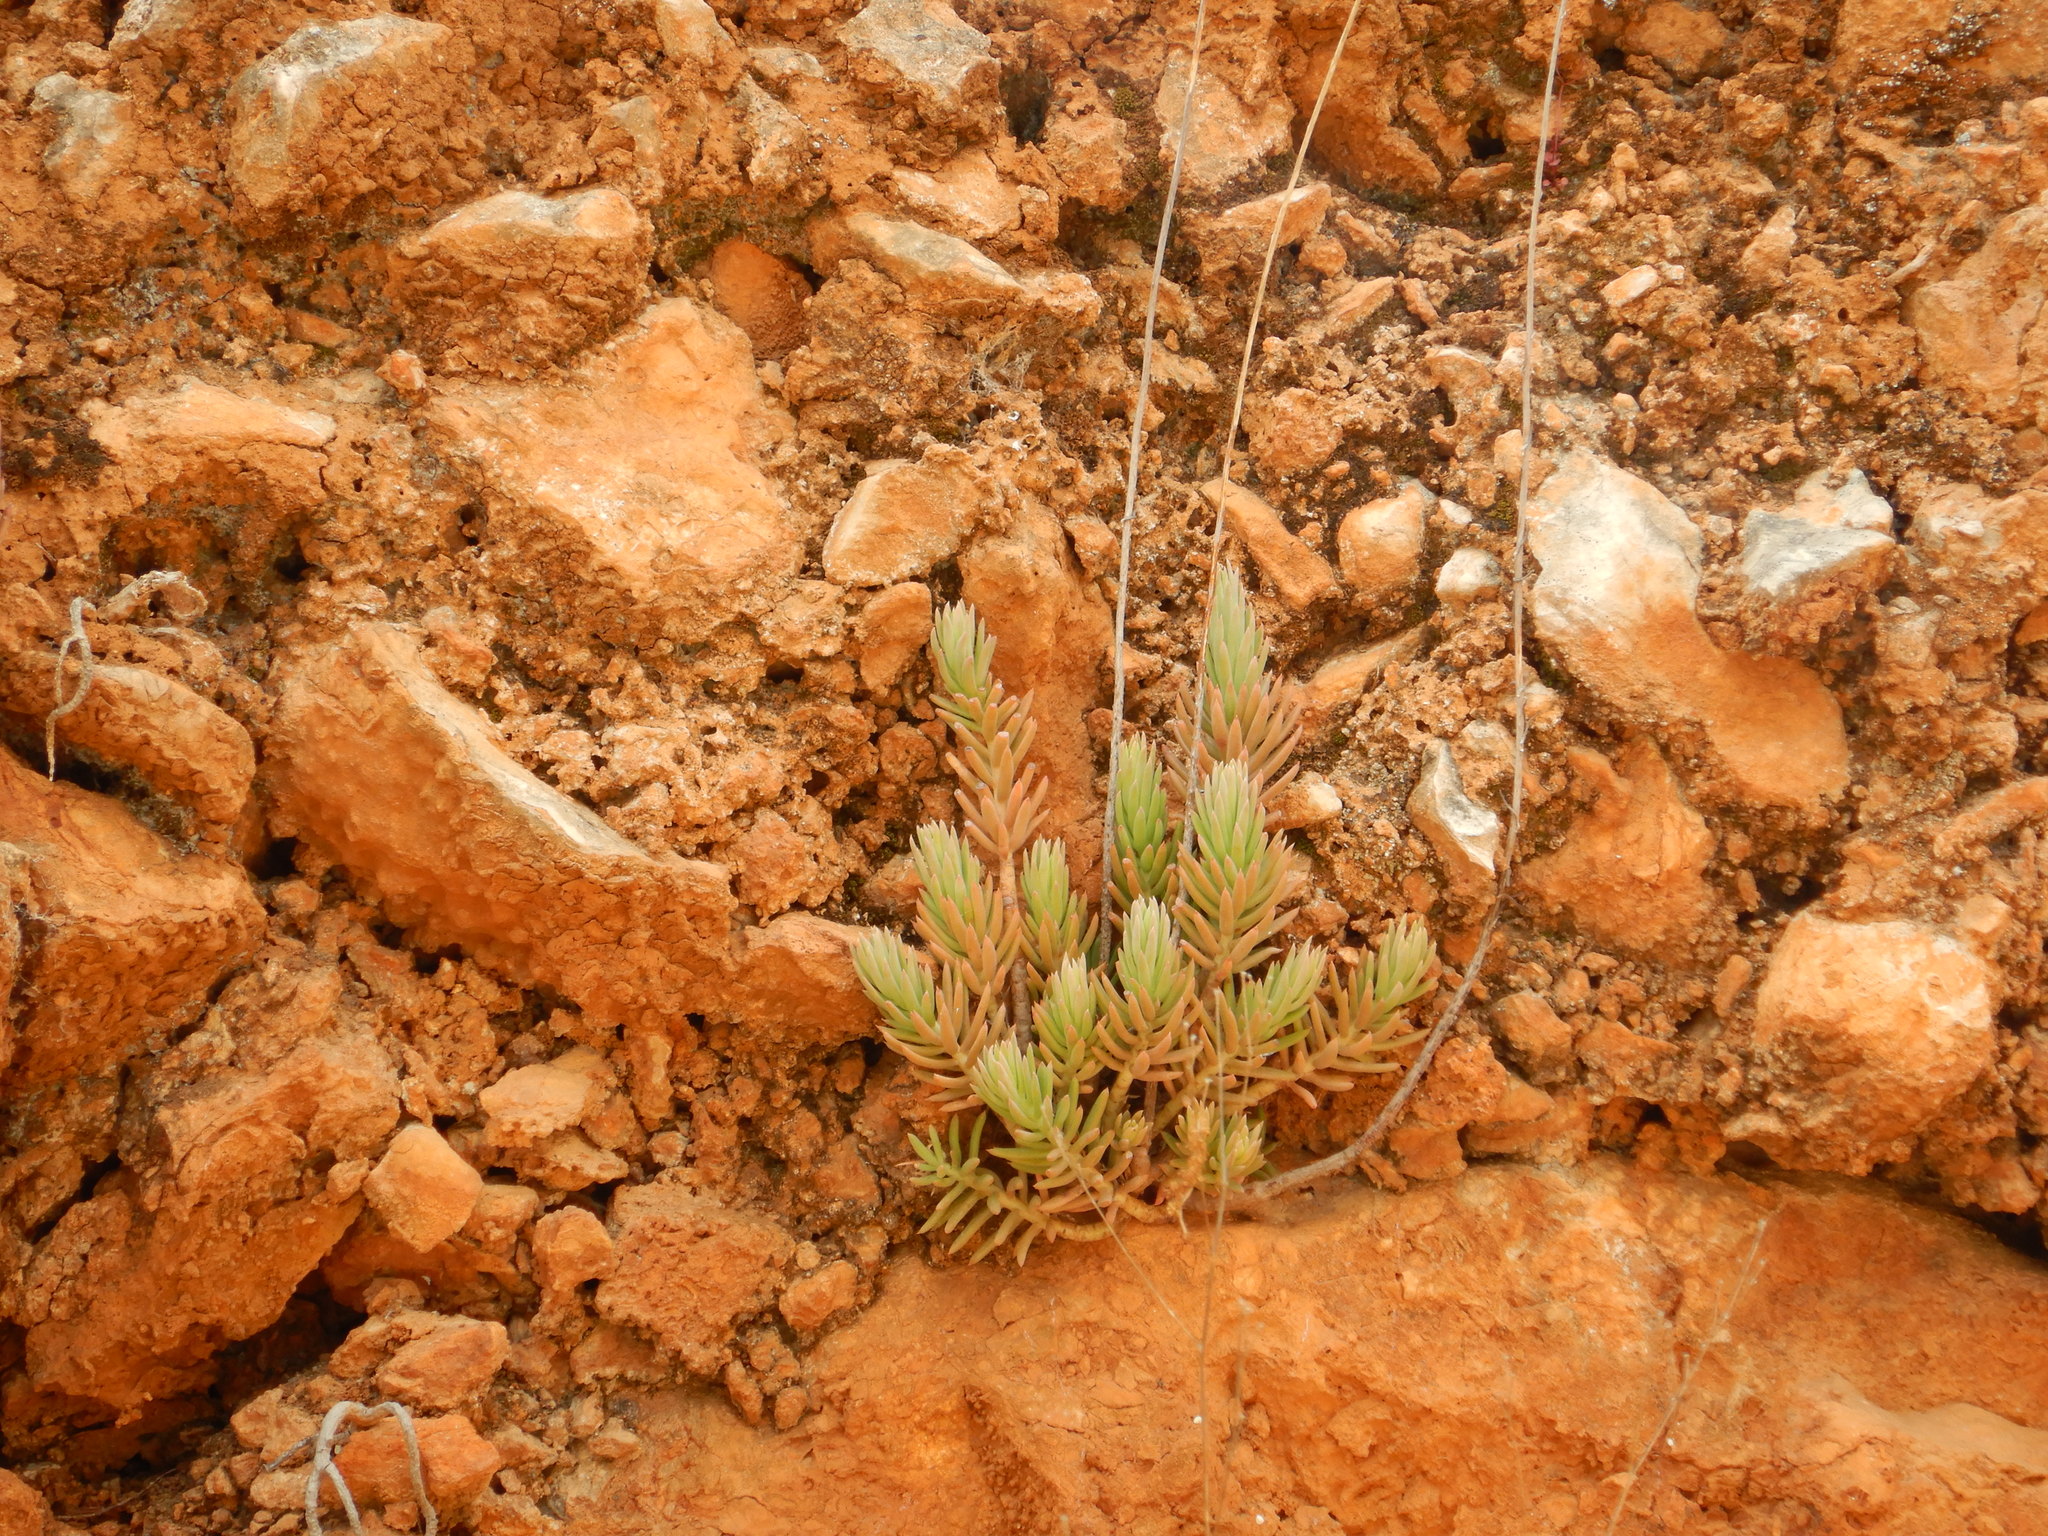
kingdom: Plantae
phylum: Tracheophyta
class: Magnoliopsida
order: Saxifragales
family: Crassulaceae
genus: Petrosedum
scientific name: Petrosedum sediforme
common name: Pale stonecrop
